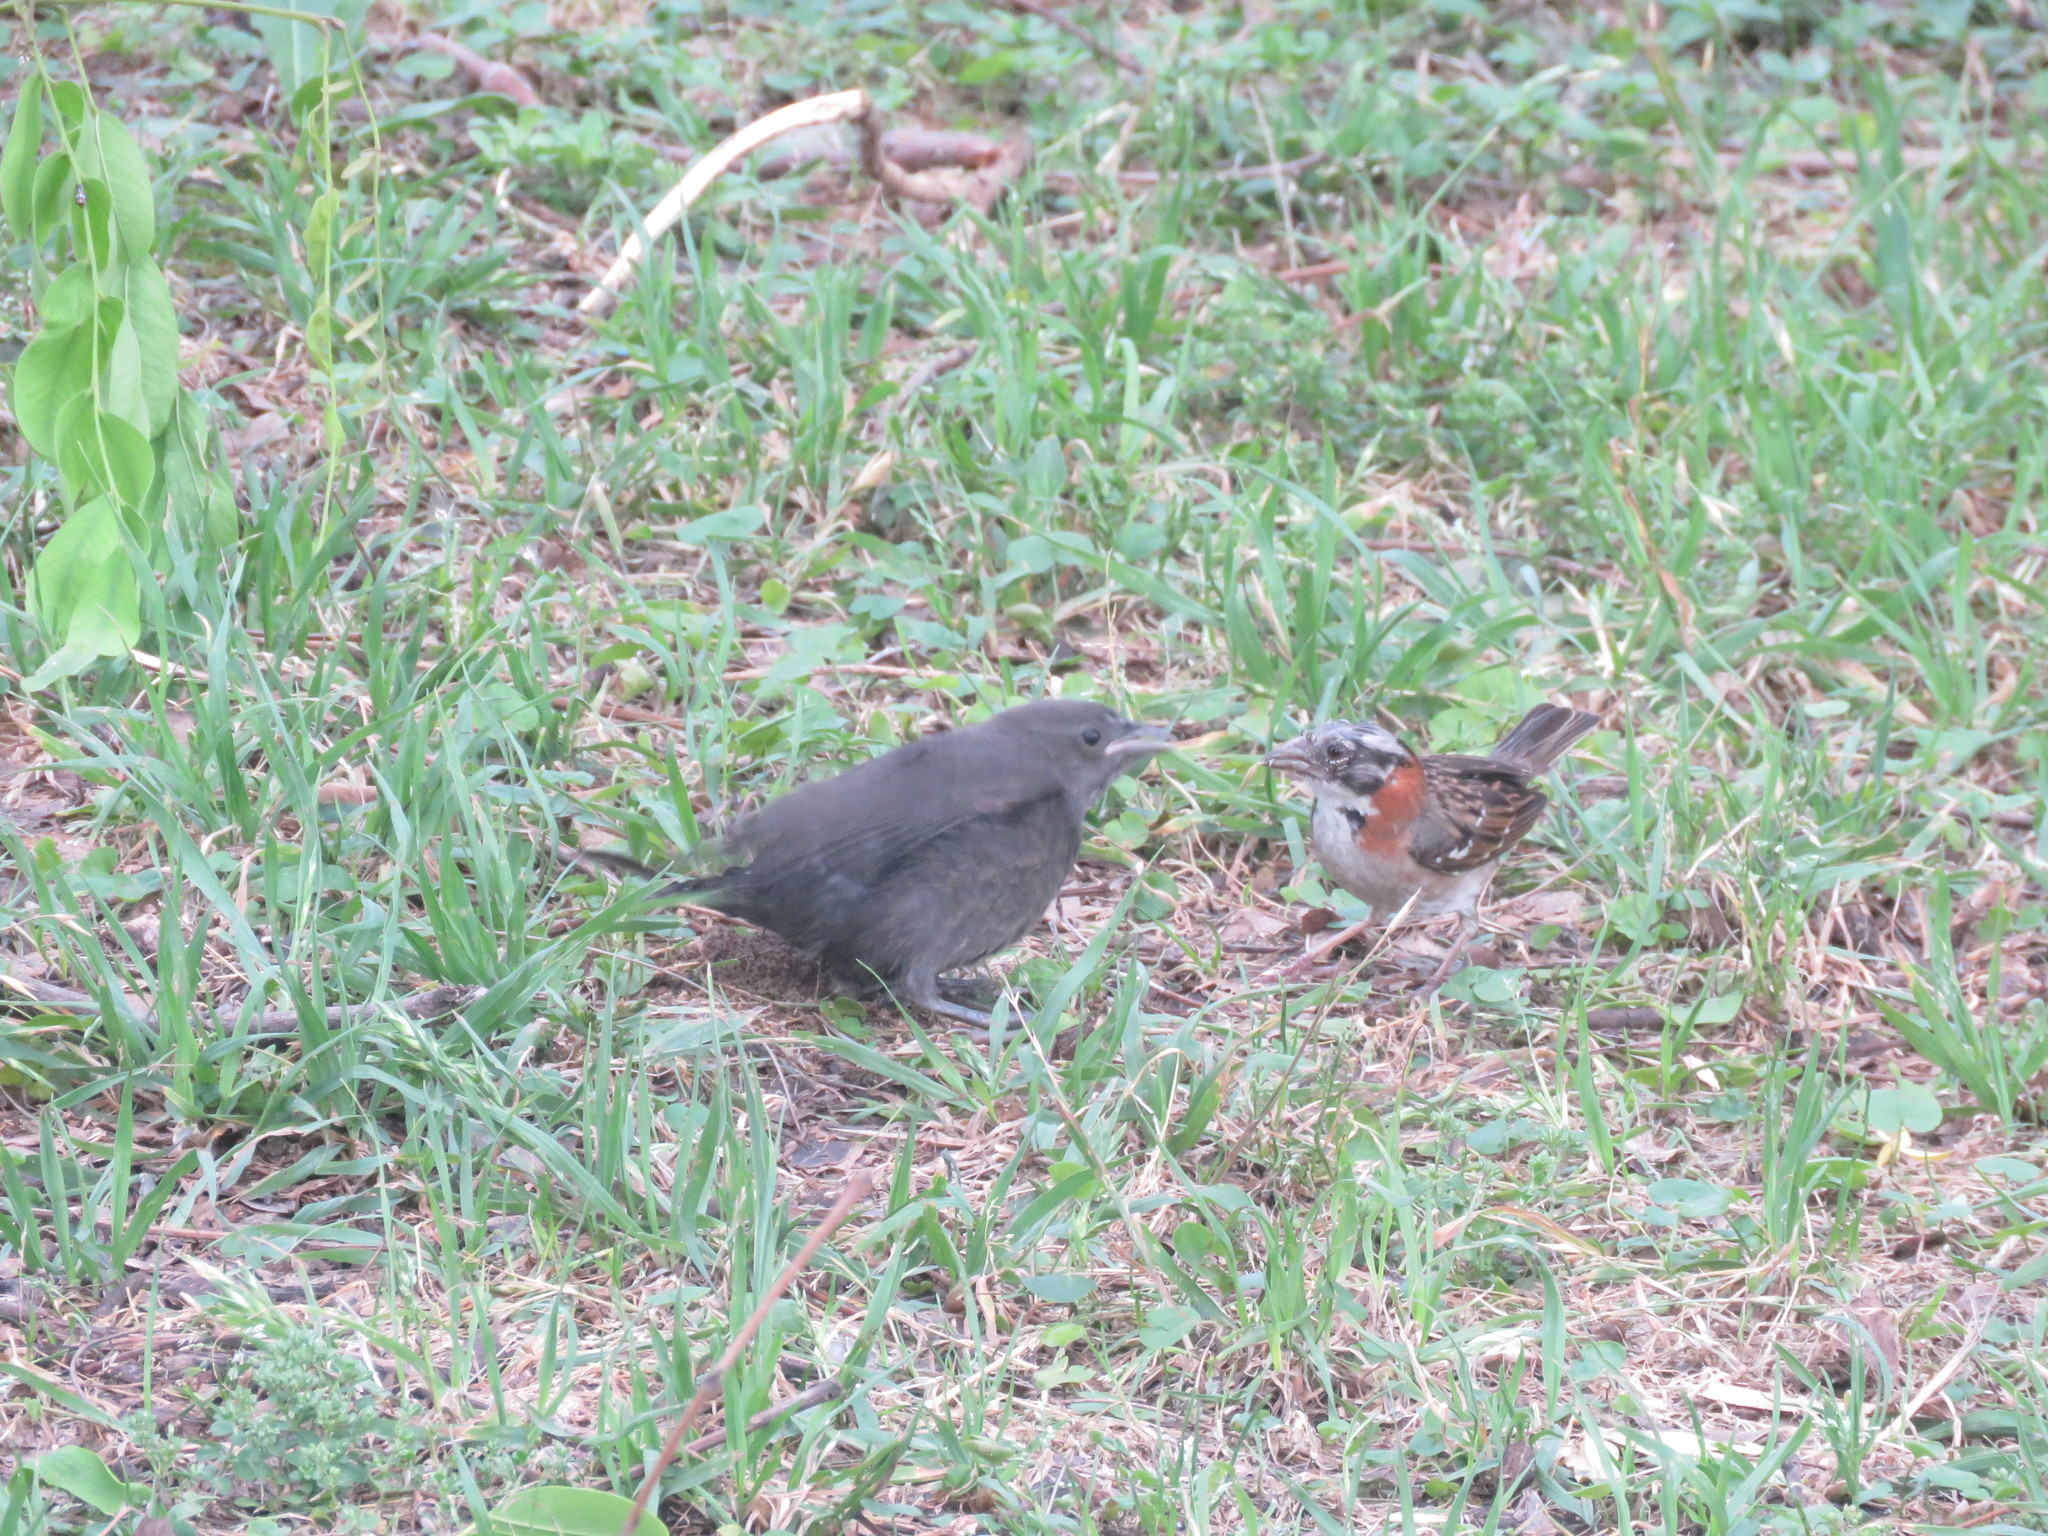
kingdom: Animalia
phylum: Chordata
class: Aves
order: Passeriformes
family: Passerellidae
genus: Zonotrichia
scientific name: Zonotrichia capensis
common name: Rufous-collared sparrow
